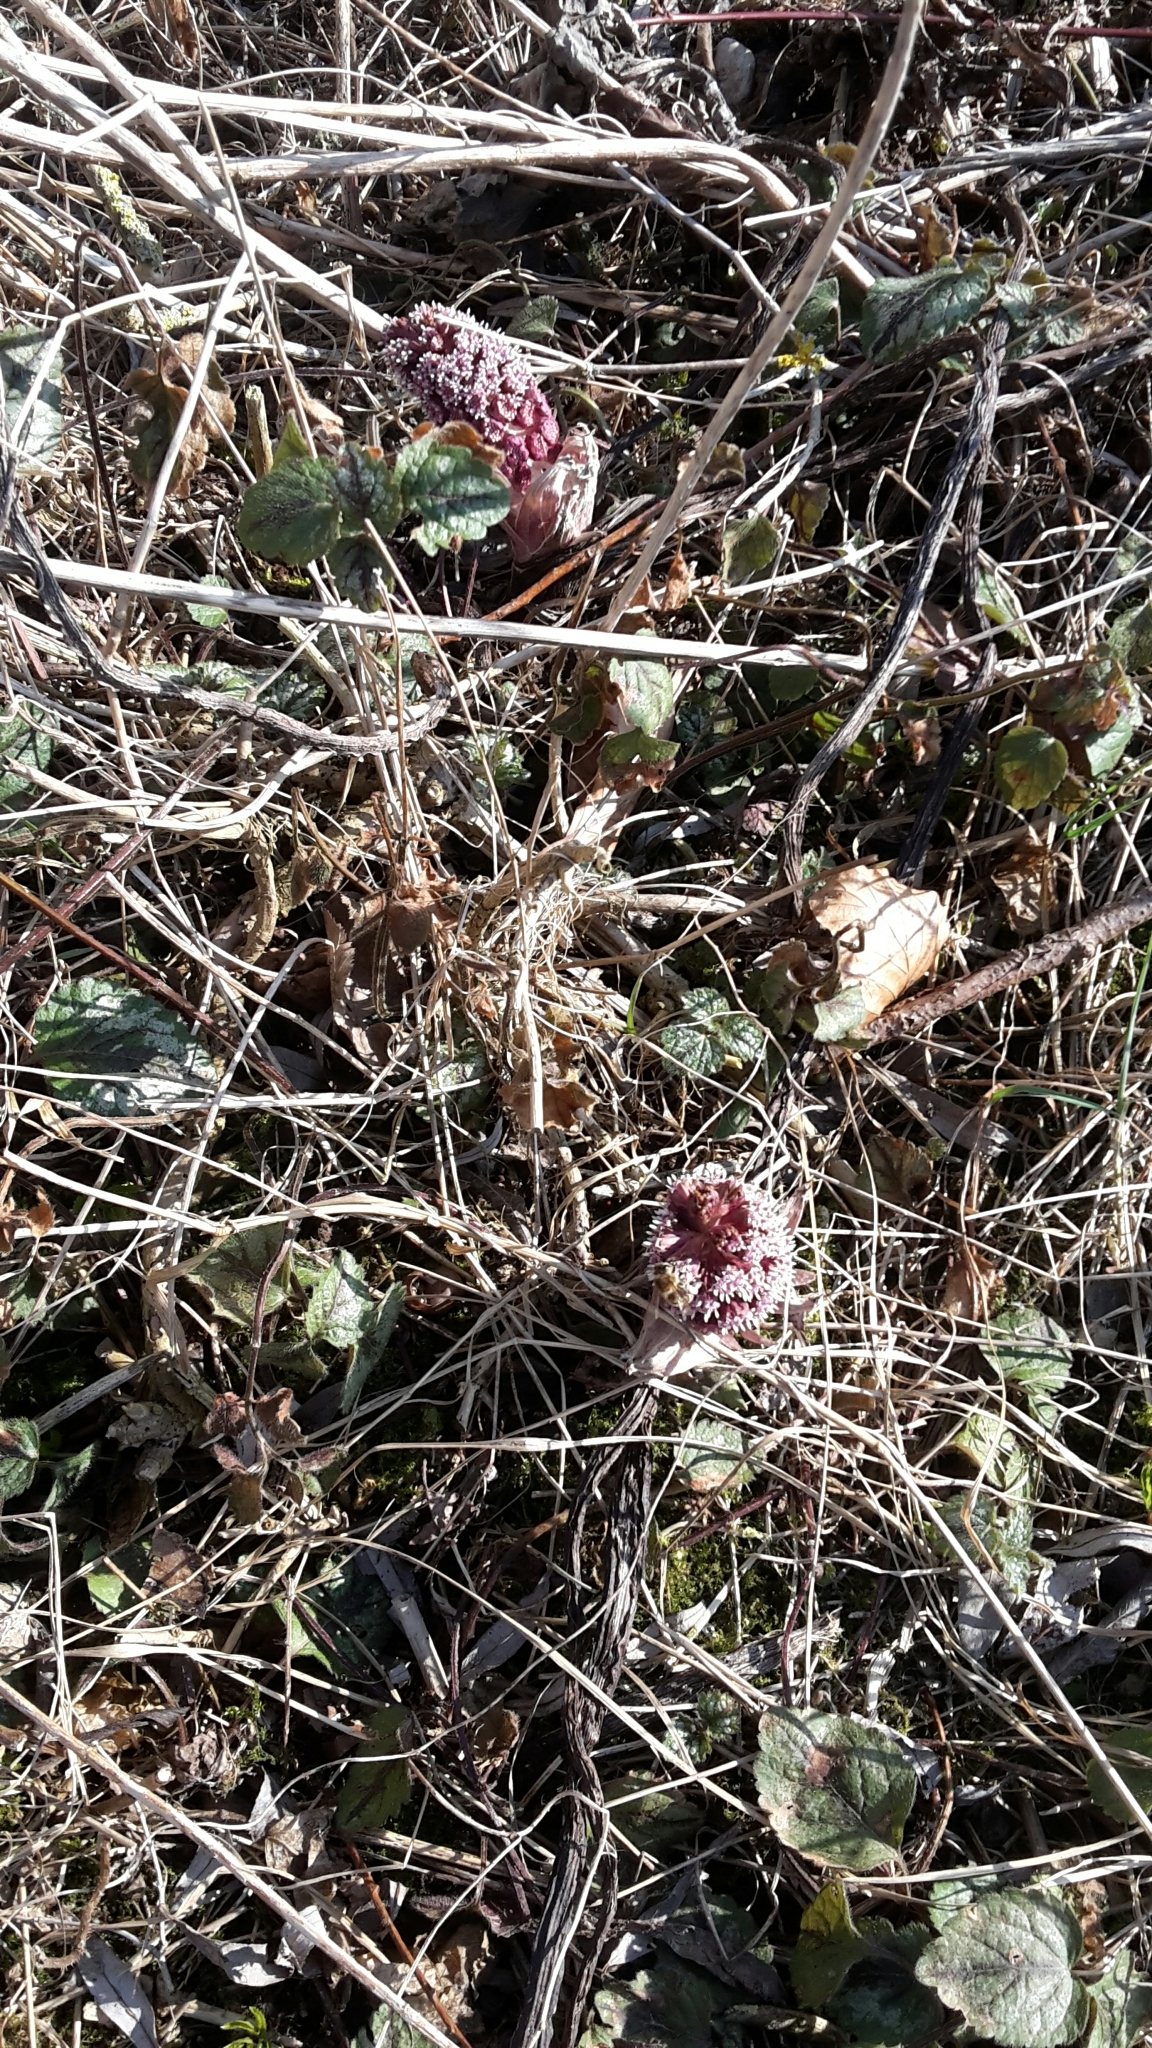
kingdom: Plantae
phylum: Tracheophyta
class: Magnoliopsida
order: Asterales
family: Asteraceae
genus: Petasites
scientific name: Petasites hybridus
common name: Butterbur
